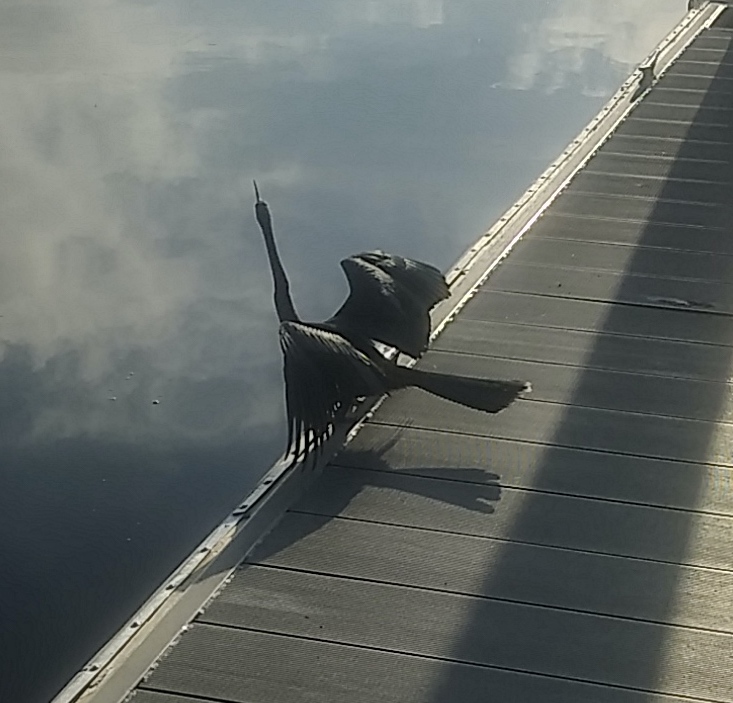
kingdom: Animalia
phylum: Chordata
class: Aves
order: Suliformes
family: Anhingidae
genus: Anhinga
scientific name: Anhinga anhinga
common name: Anhinga
